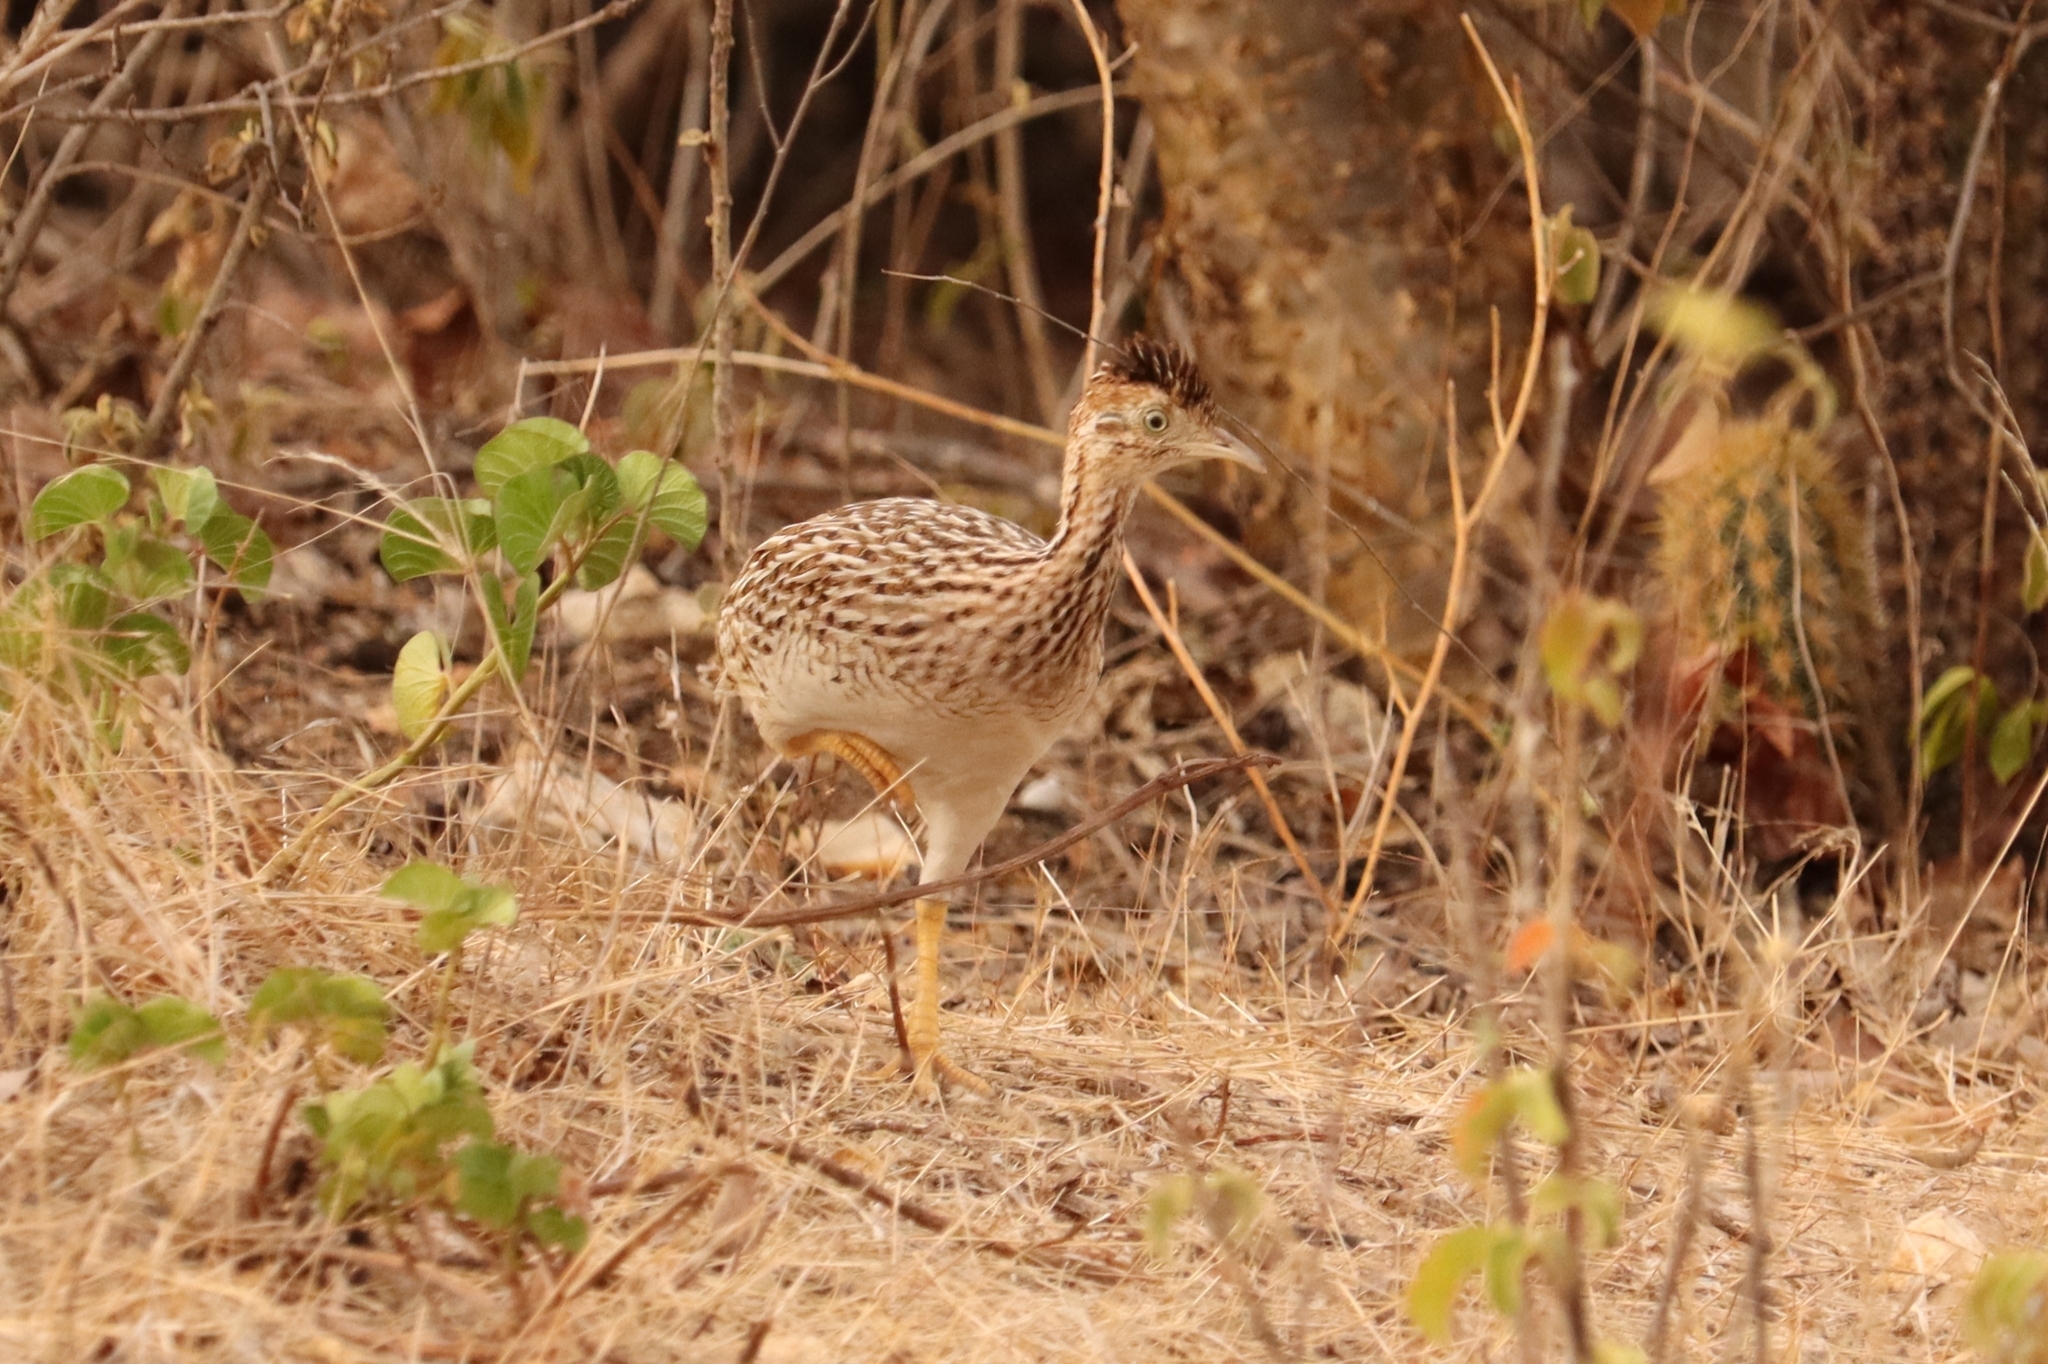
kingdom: Animalia
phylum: Chordata
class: Aves
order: Tinamiformes
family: Tinamidae
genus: Nothura
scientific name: Nothura boraquira
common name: White-bellied nothura
